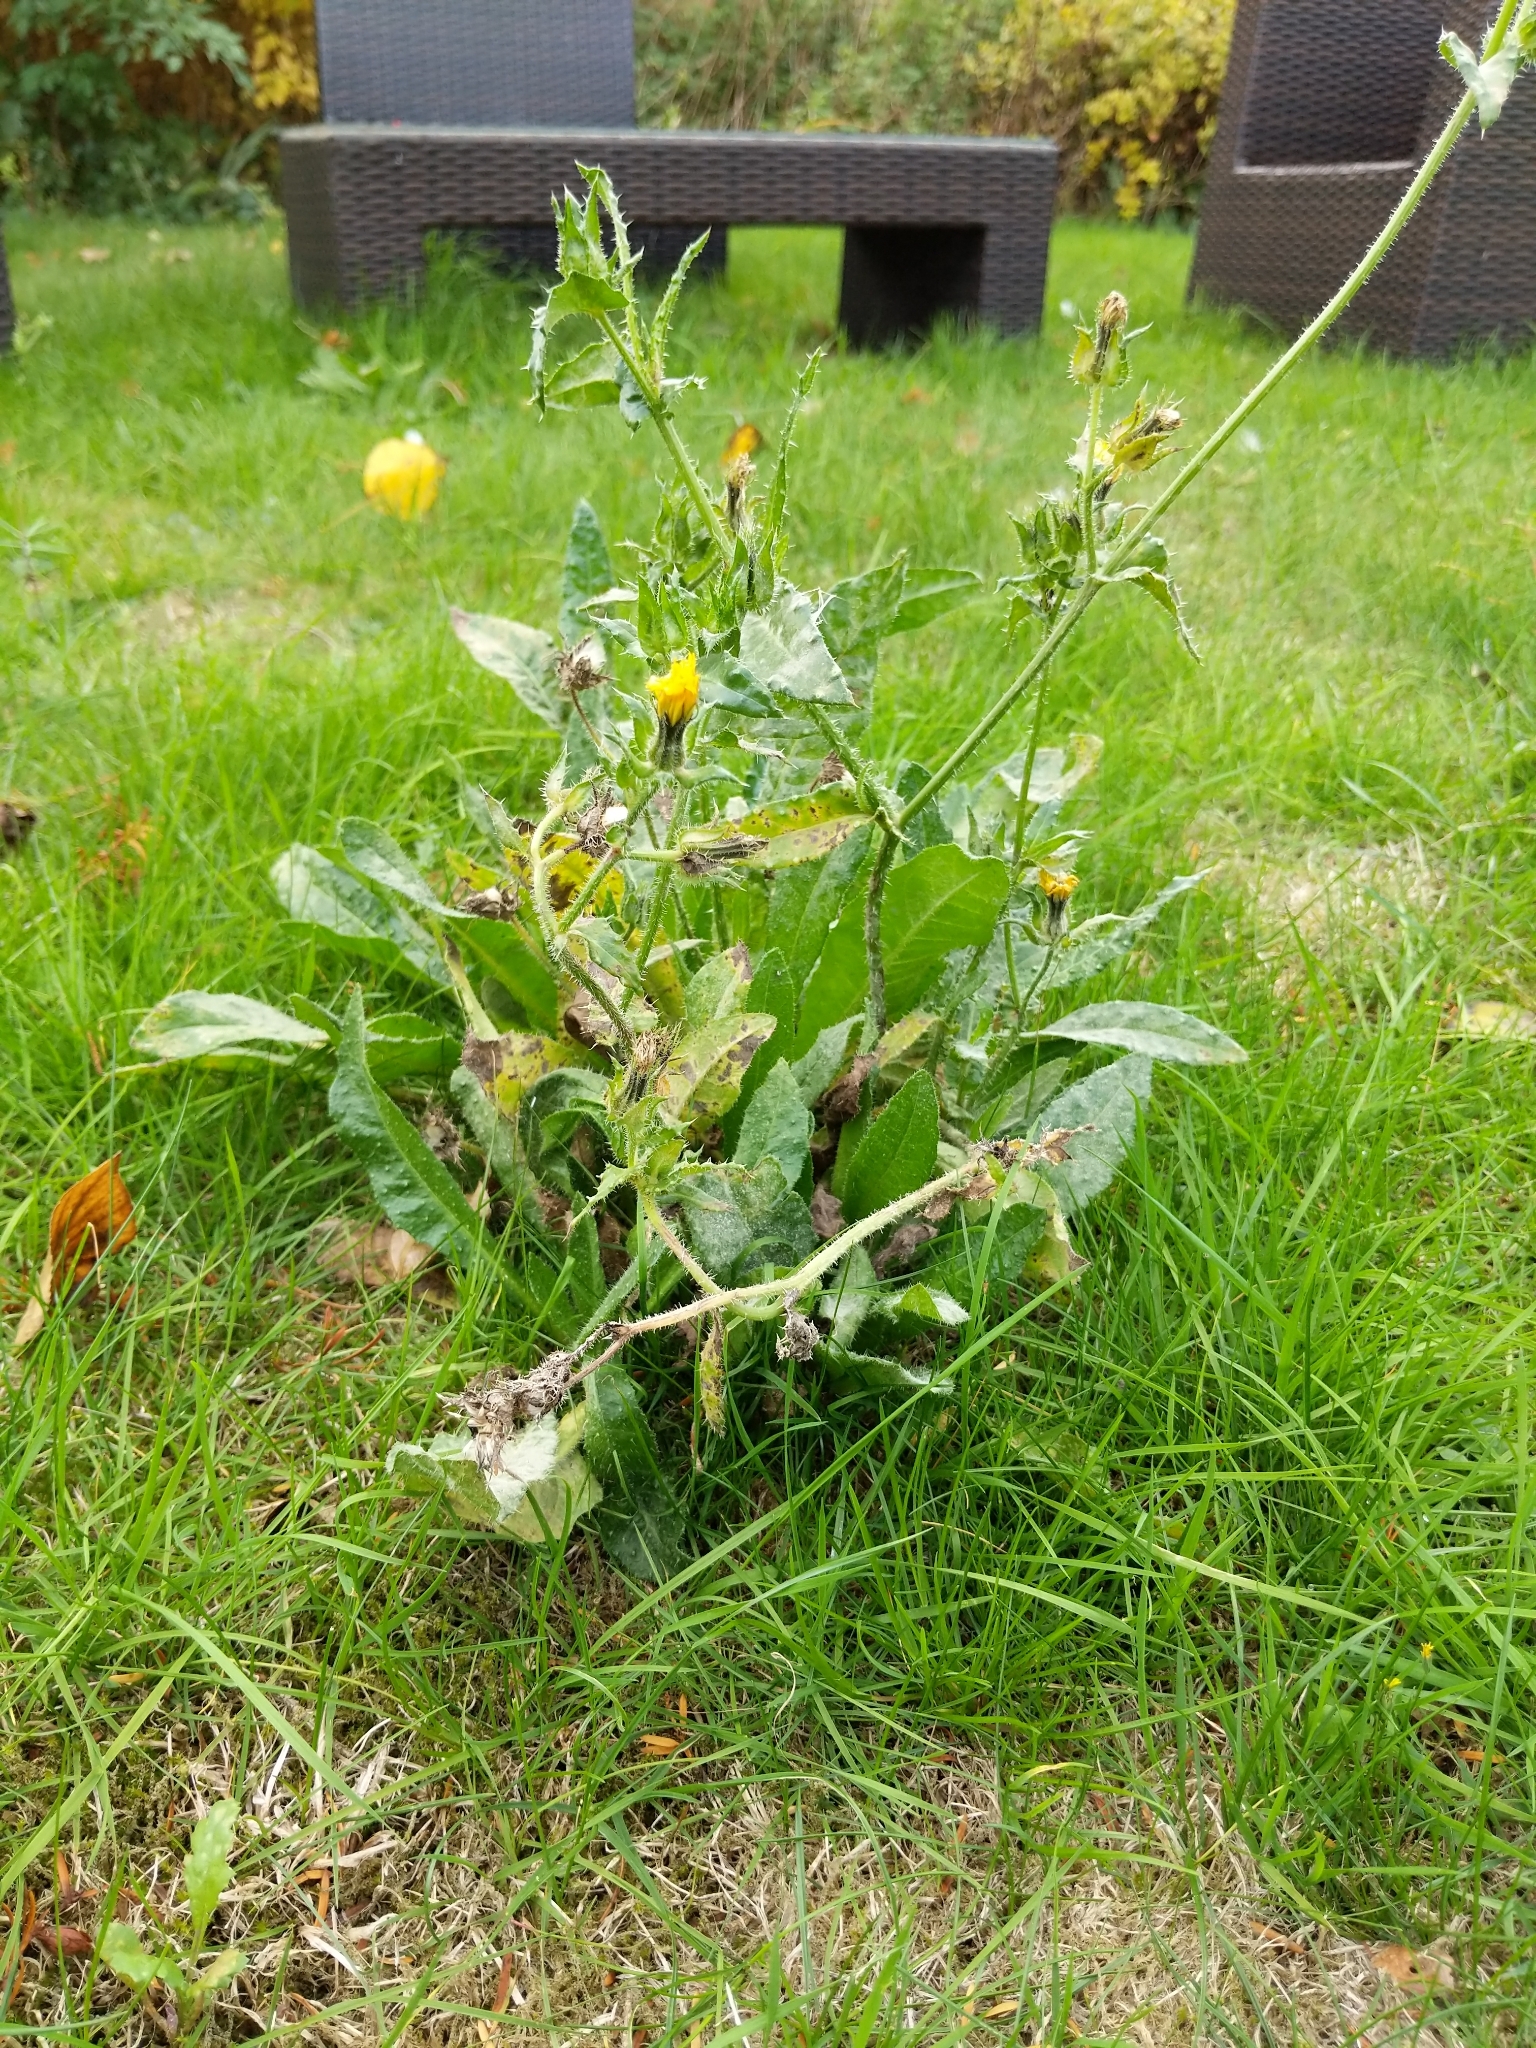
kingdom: Plantae
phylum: Tracheophyta
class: Magnoliopsida
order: Asterales
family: Asteraceae
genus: Helminthotheca
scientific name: Helminthotheca echioides
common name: Ox-tongue
